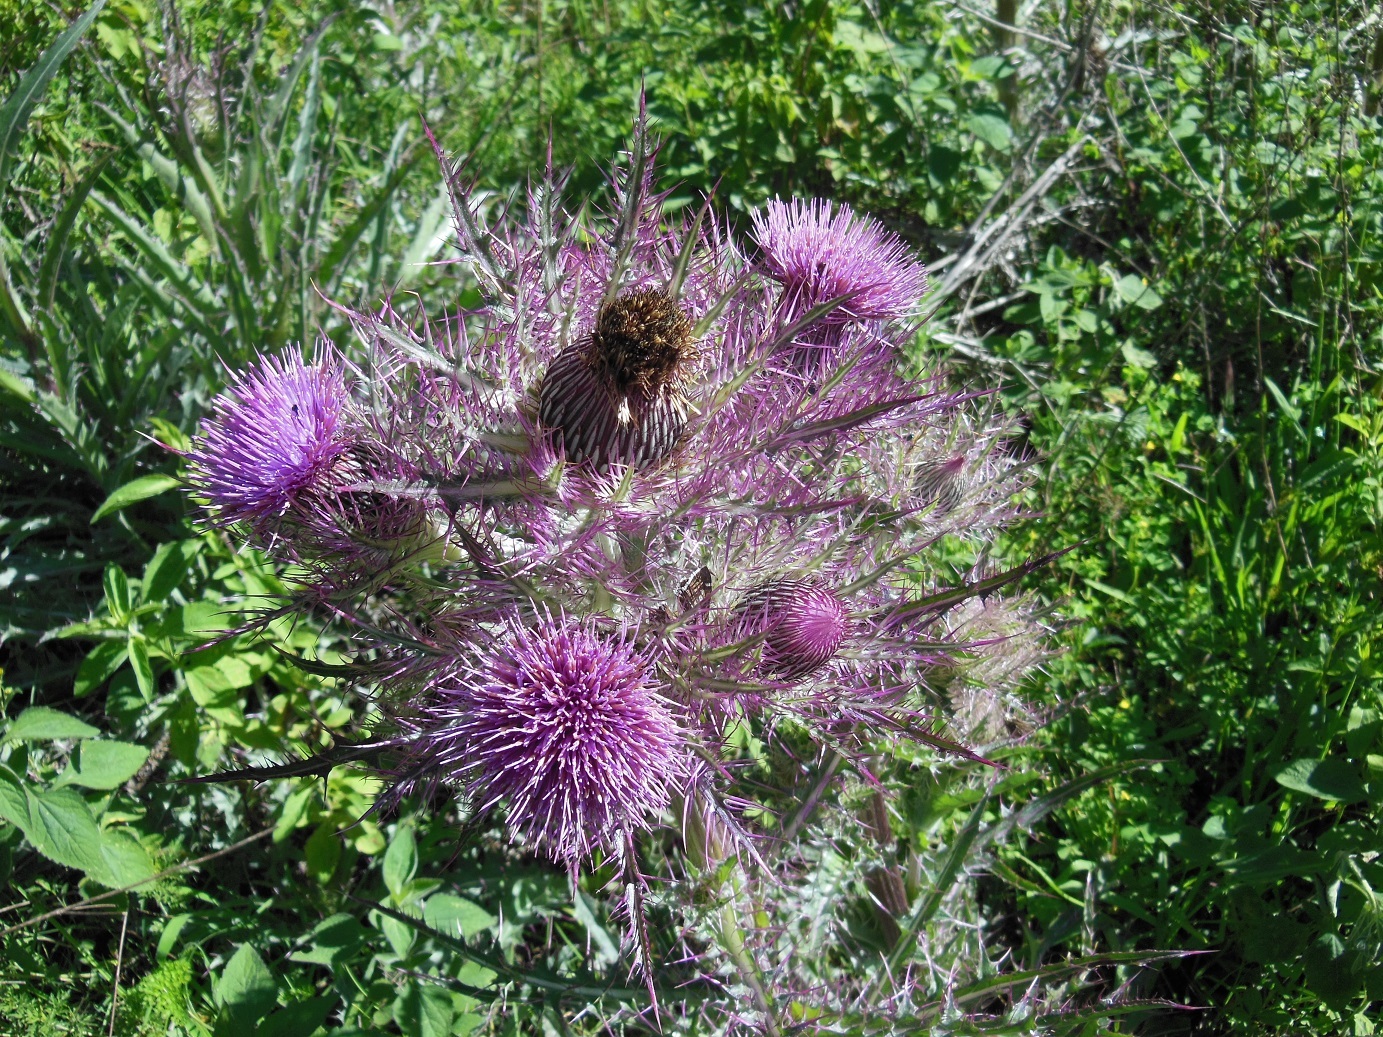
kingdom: Plantae
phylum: Tracheophyta
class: Magnoliopsida
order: Asterales
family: Asteraceae
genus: Cirsium
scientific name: Cirsium horridulum
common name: Bristly thistle
